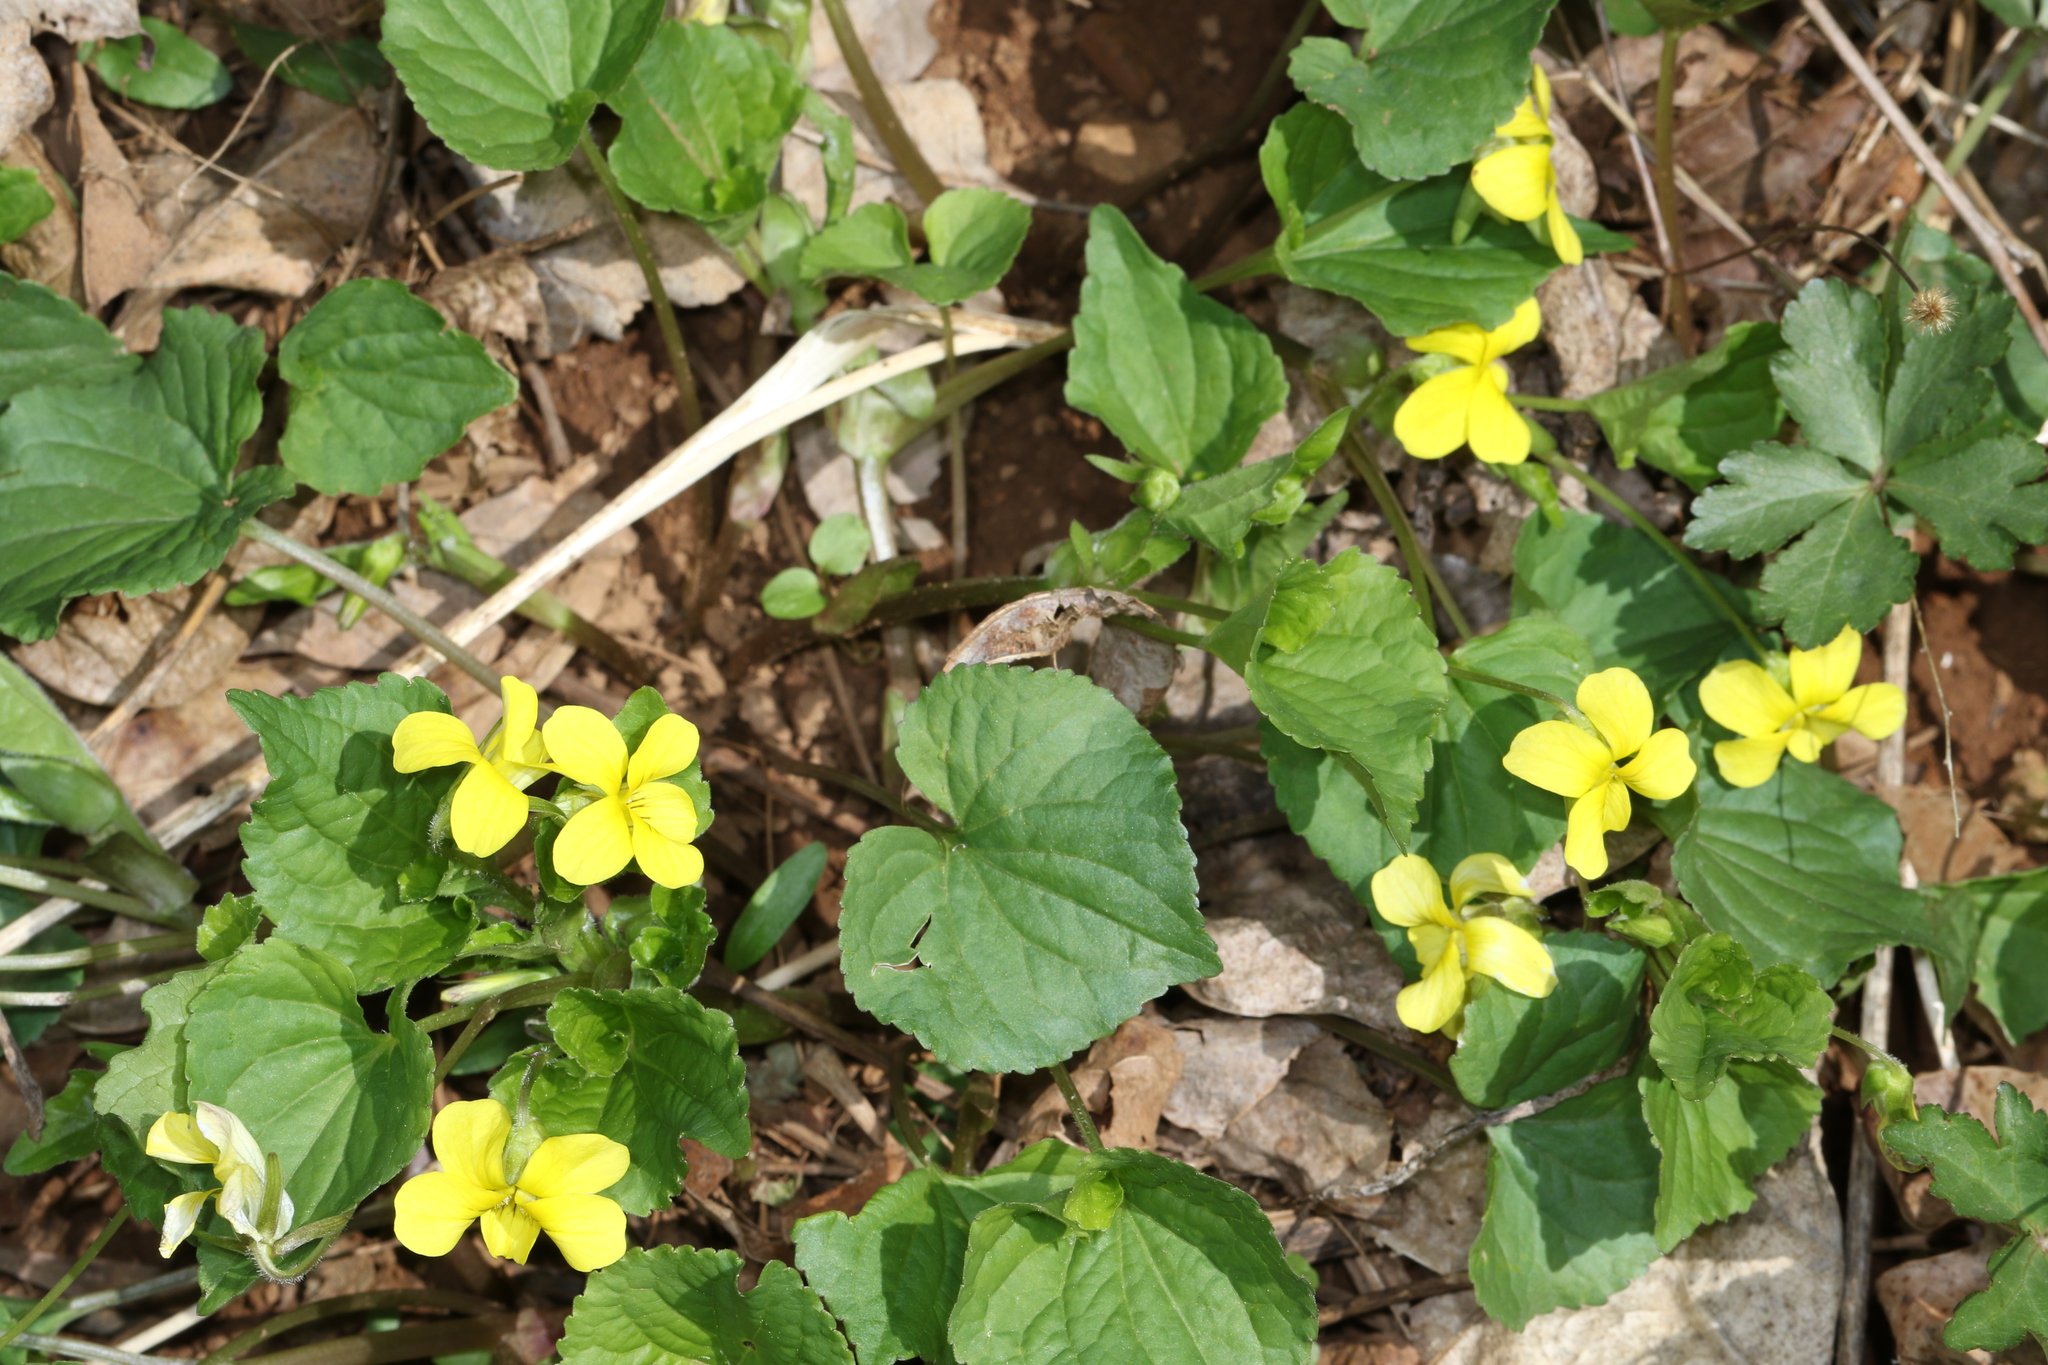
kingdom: Plantae
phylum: Tracheophyta
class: Magnoliopsida
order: Malpighiales
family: Violaceae
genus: Viola
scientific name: Viola eriocarpa
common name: Smooth yellow violet
